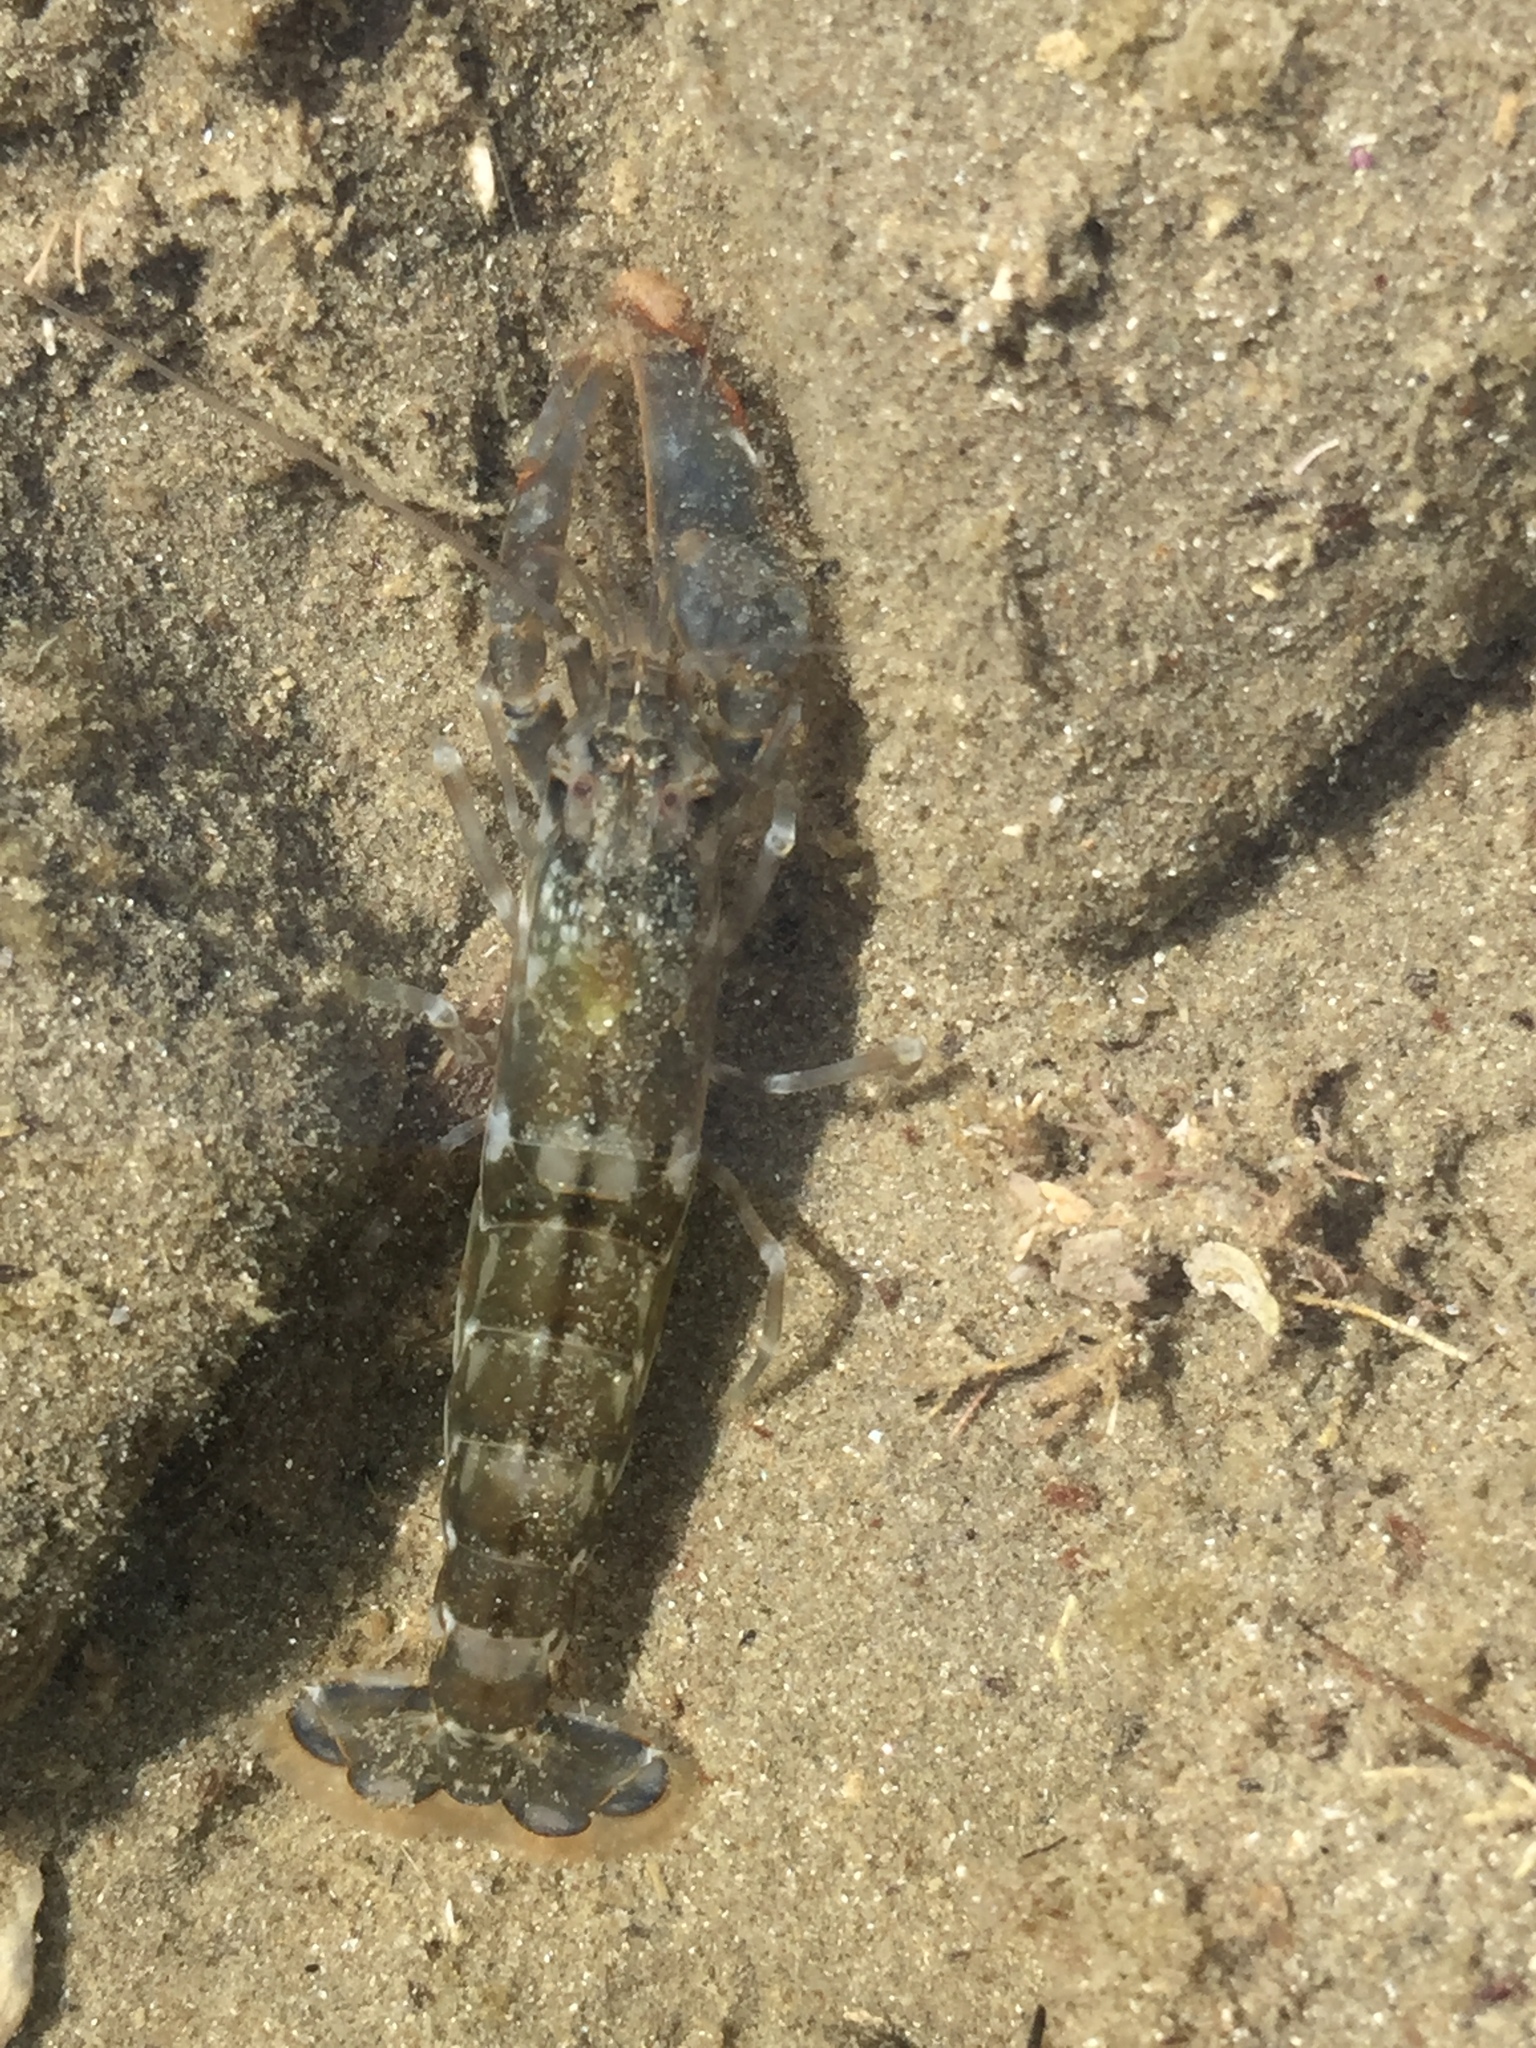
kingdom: Animalia
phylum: Arthropoda
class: Malacostraca
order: Decapoda
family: Alpheidae
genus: Alpheus
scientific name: Alpheus novaezealandiae
